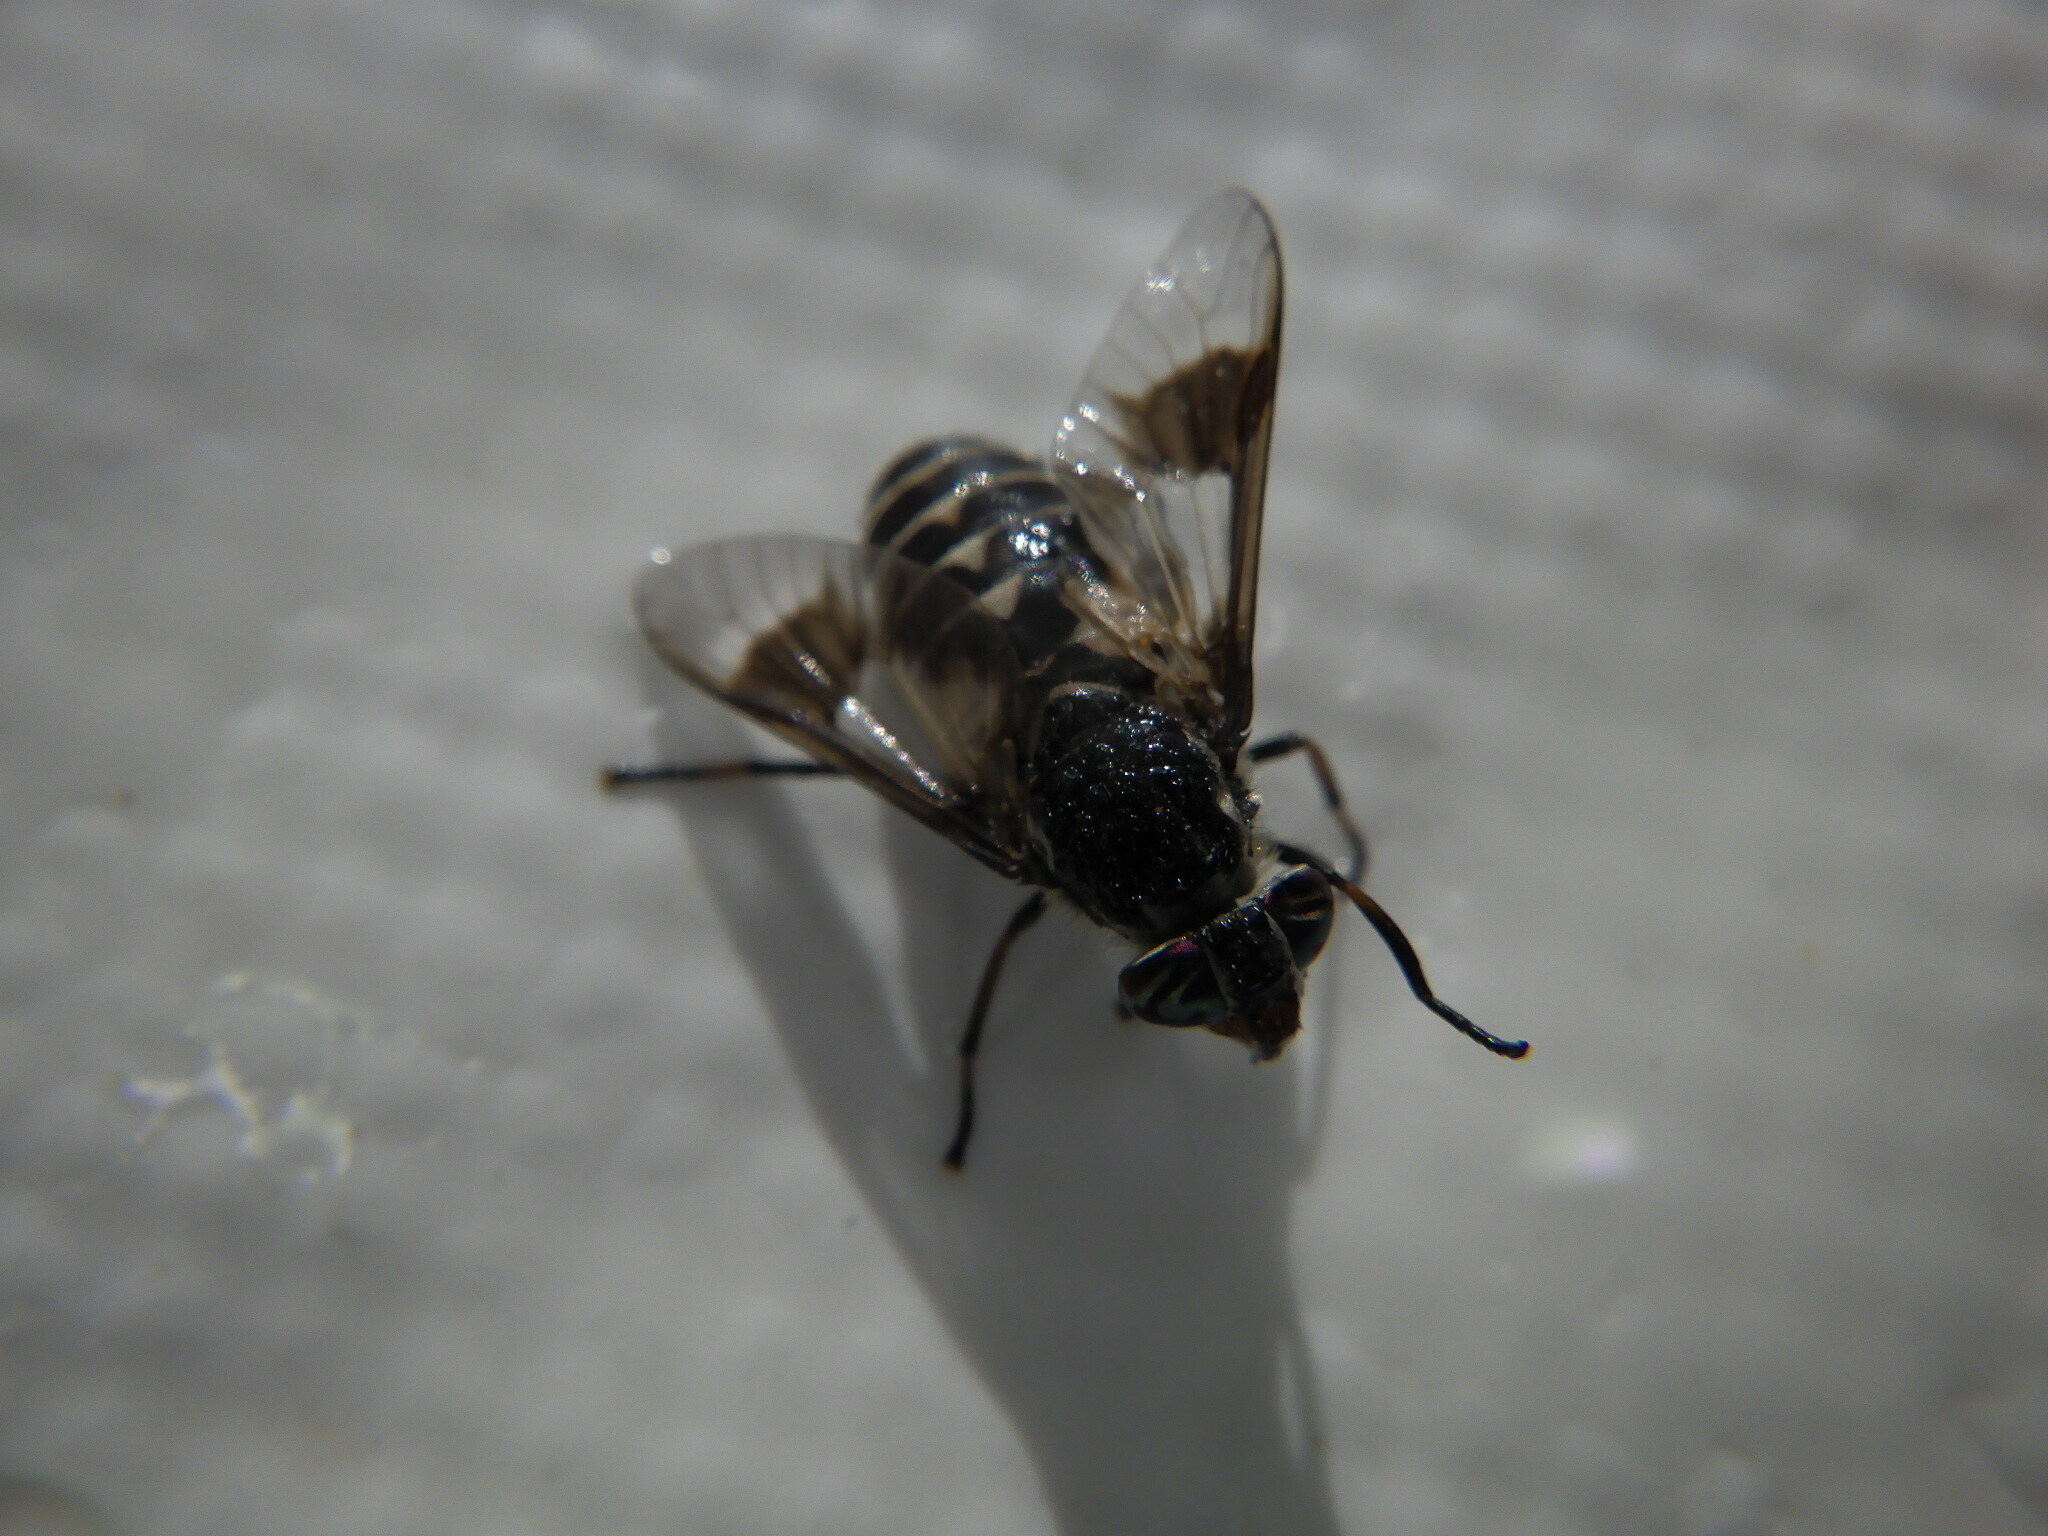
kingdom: Animalia
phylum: Arthropoda
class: Insecta
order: Diptera
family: Tabanidae
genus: Chrysops
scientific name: Chrysops aestuans
